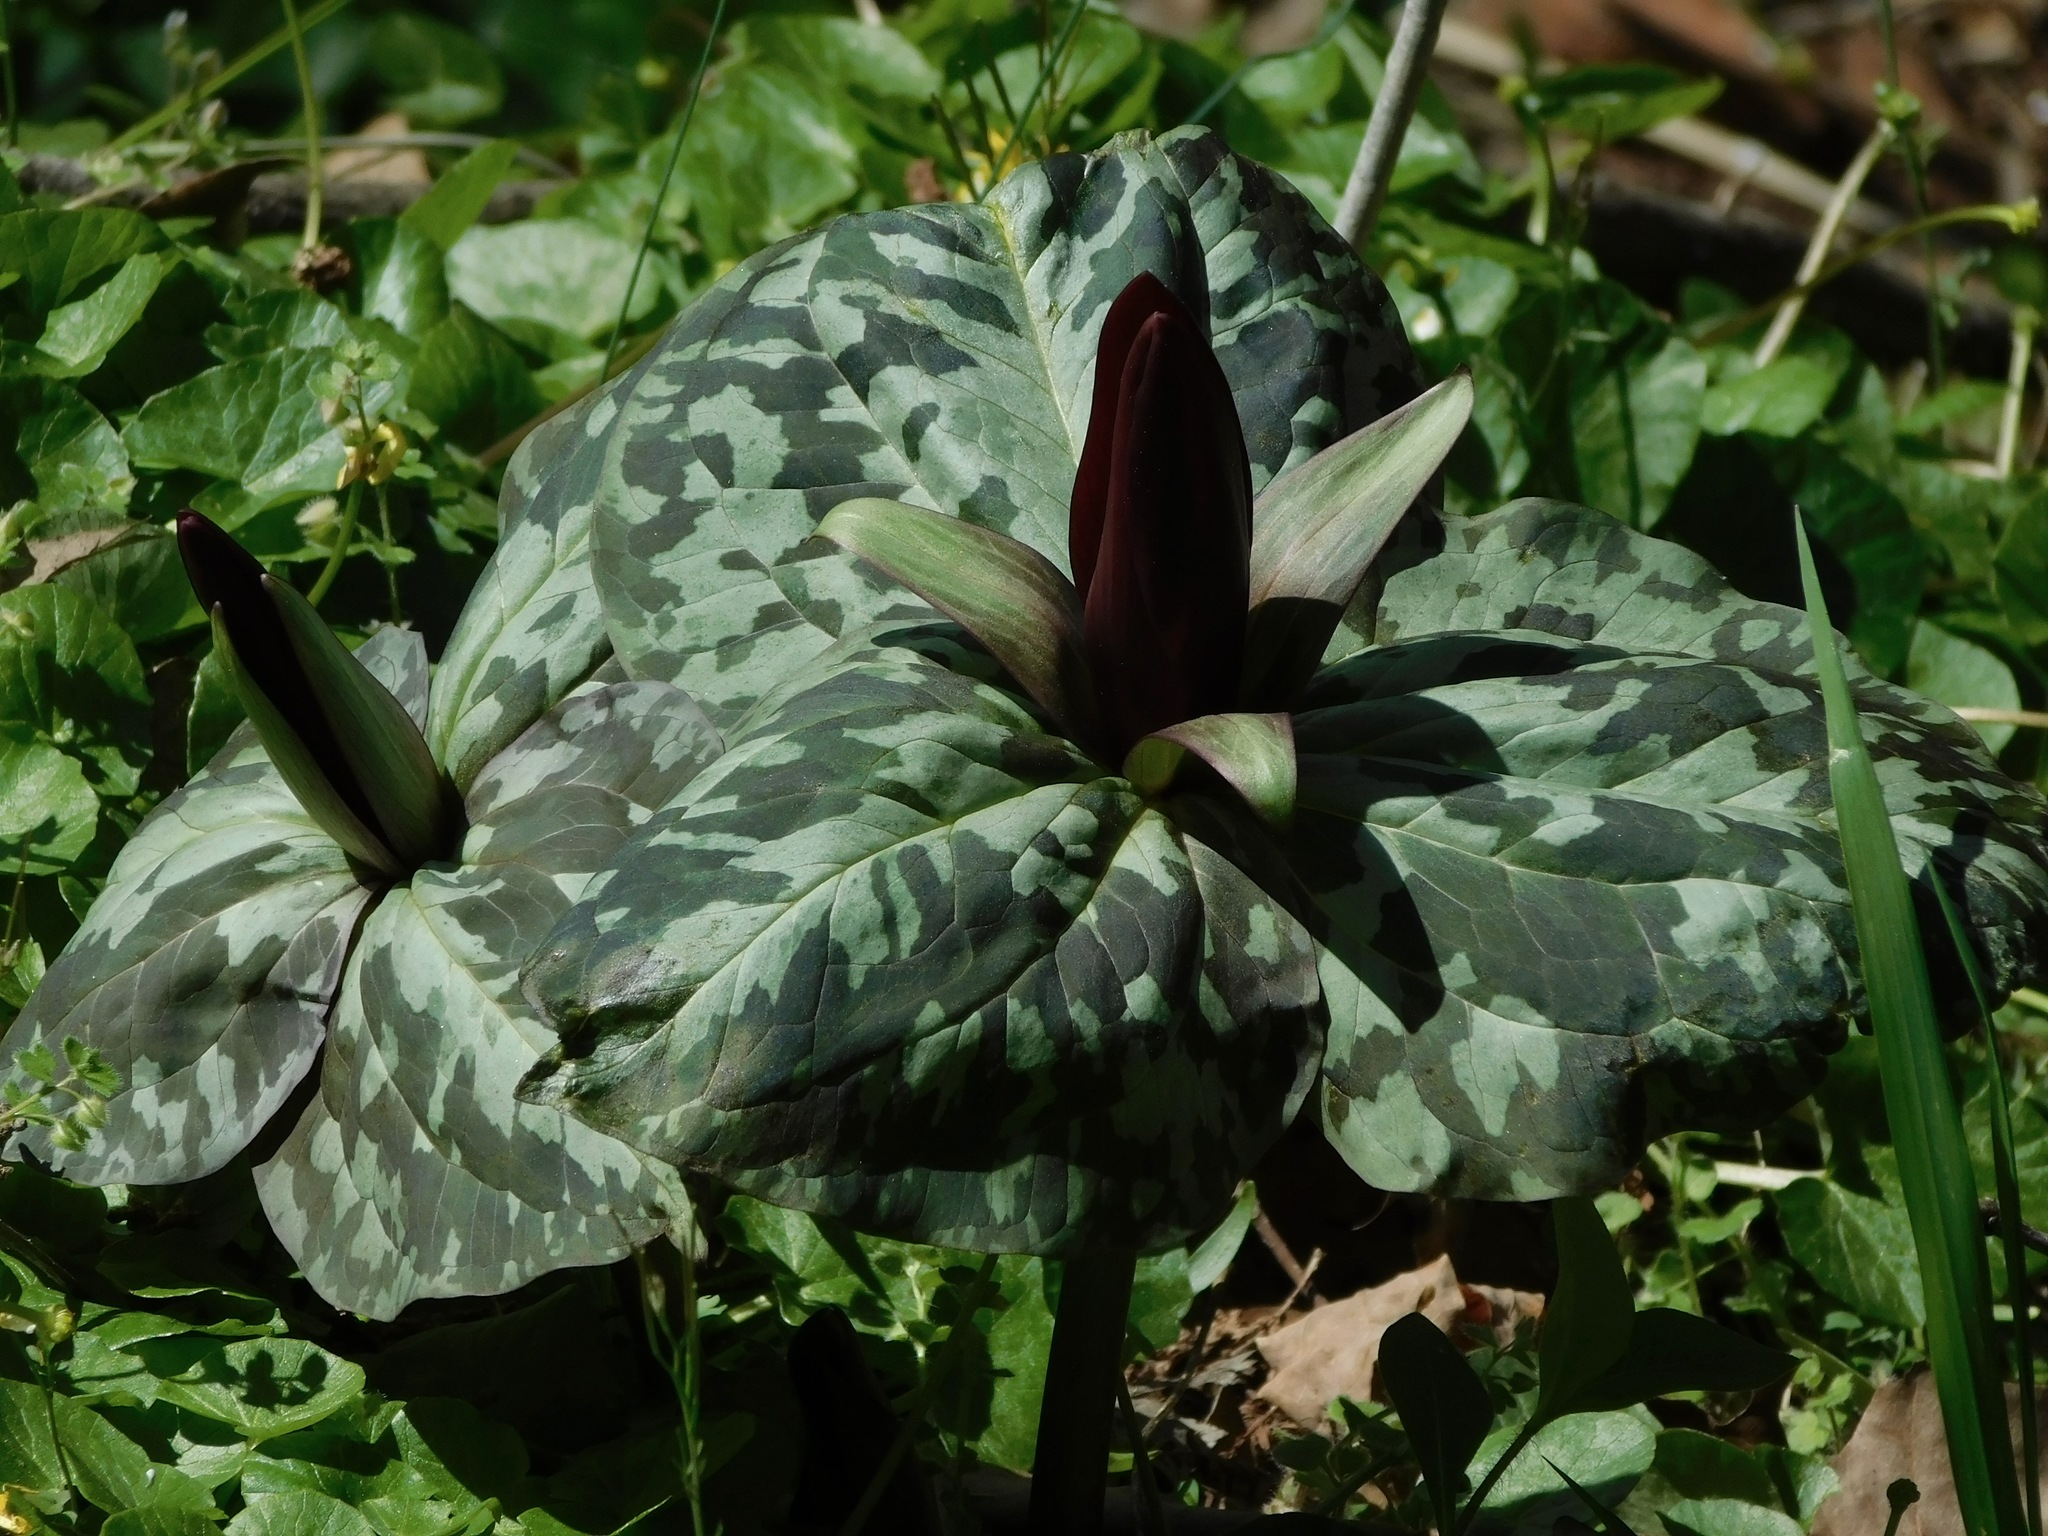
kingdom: Plantae
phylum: Tracheophyta
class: Liliopsida
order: Liliales
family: Melanthiaceae
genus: Trillium
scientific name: Trillium cuneatum
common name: Cuneate trillium
